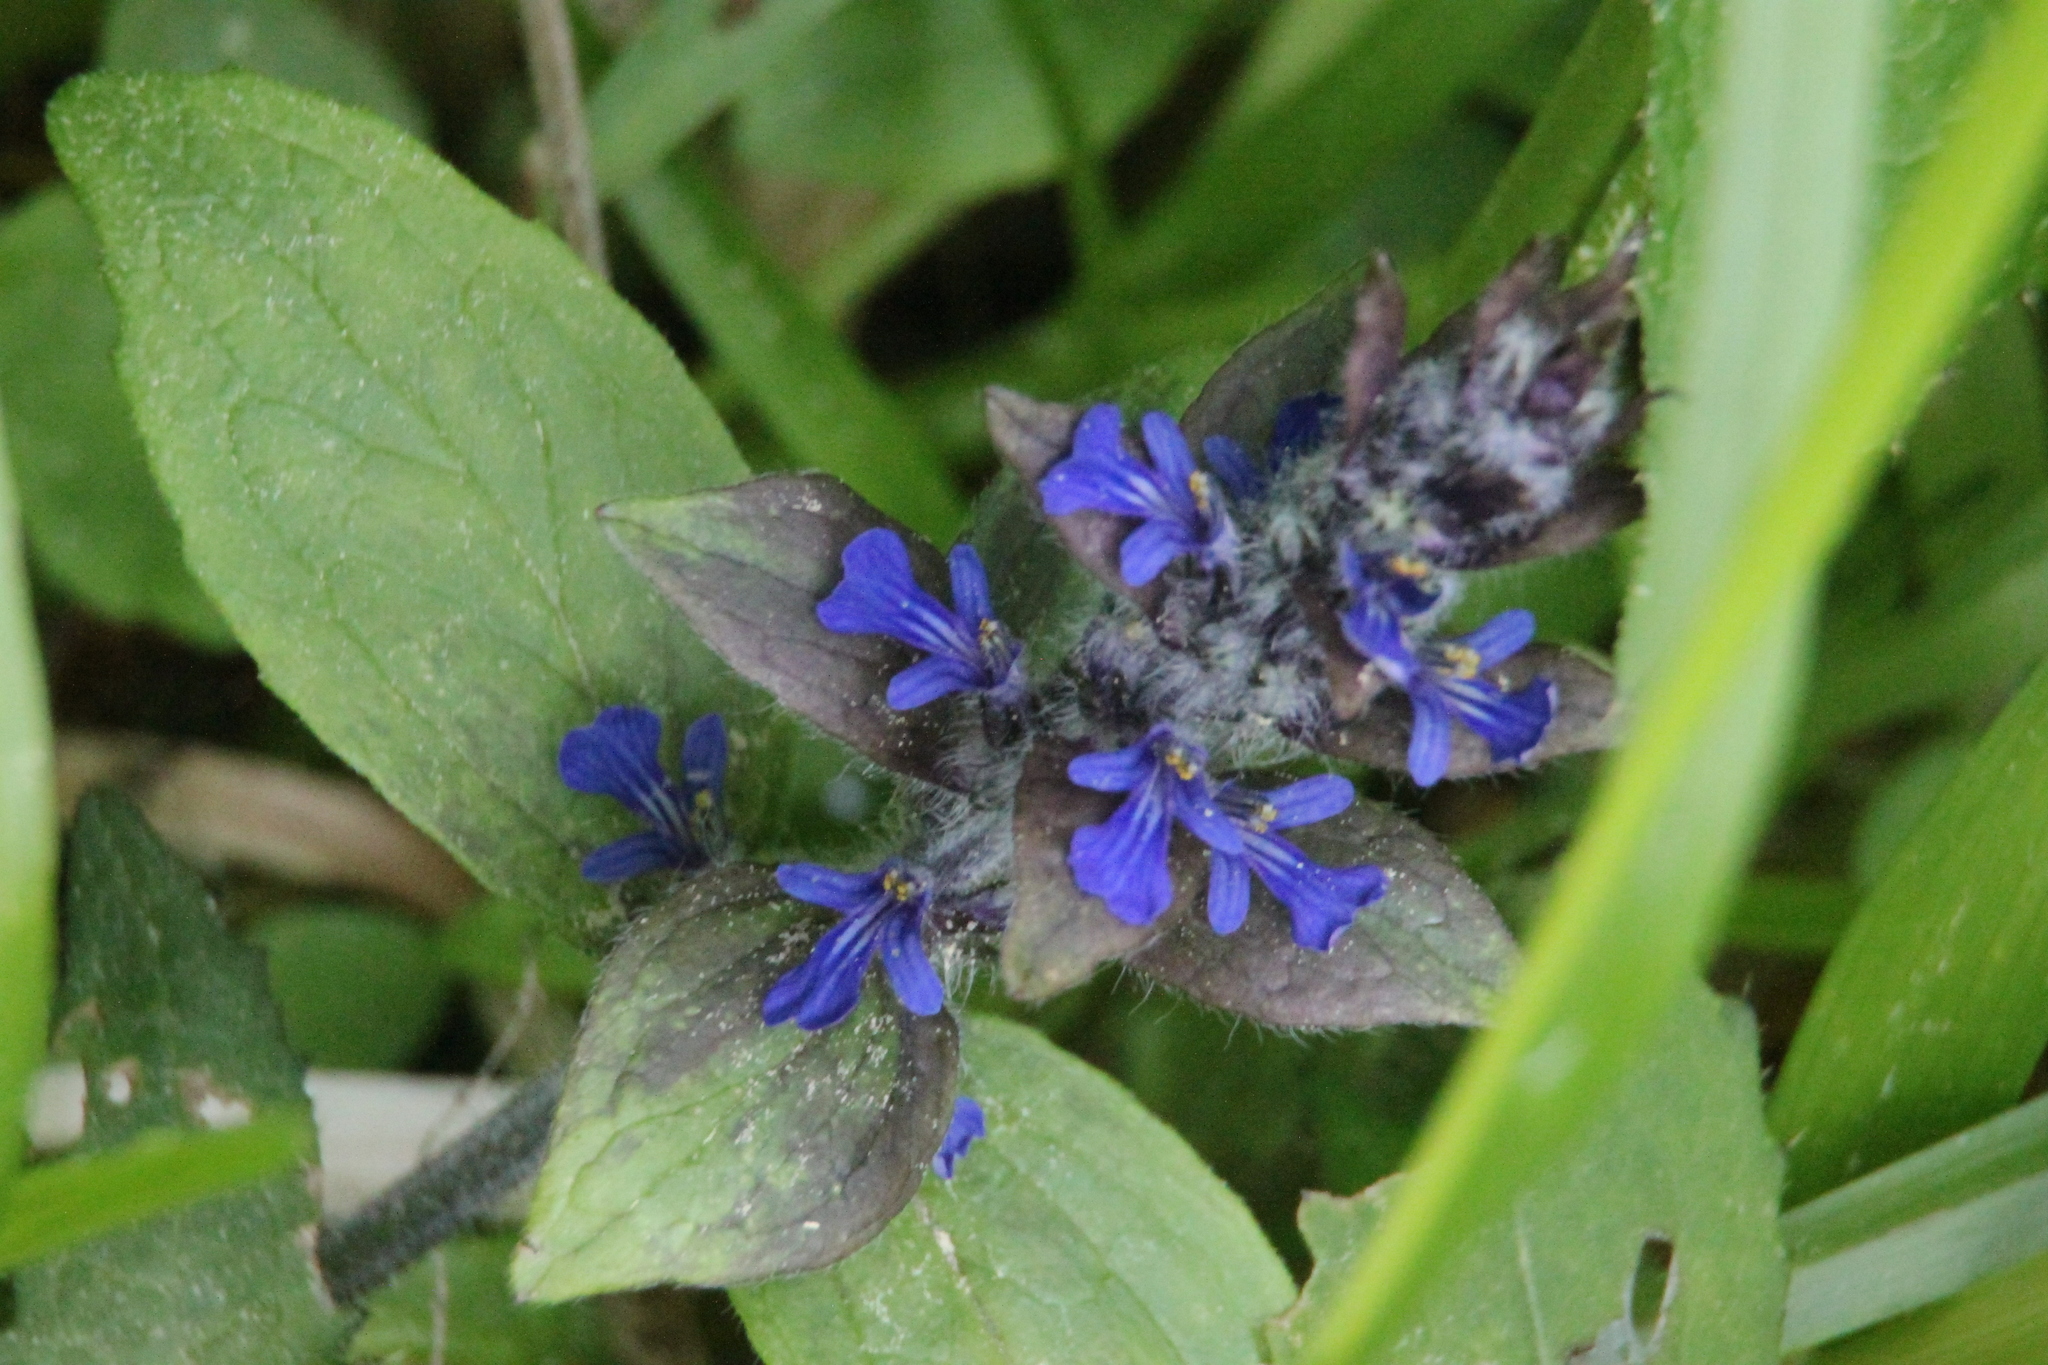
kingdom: Plantae
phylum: Tracheophyta
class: Magnoliopsida
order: Lamiales
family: Lamiaceae
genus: Ajuga
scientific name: Ajuga reptans
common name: Bugle
